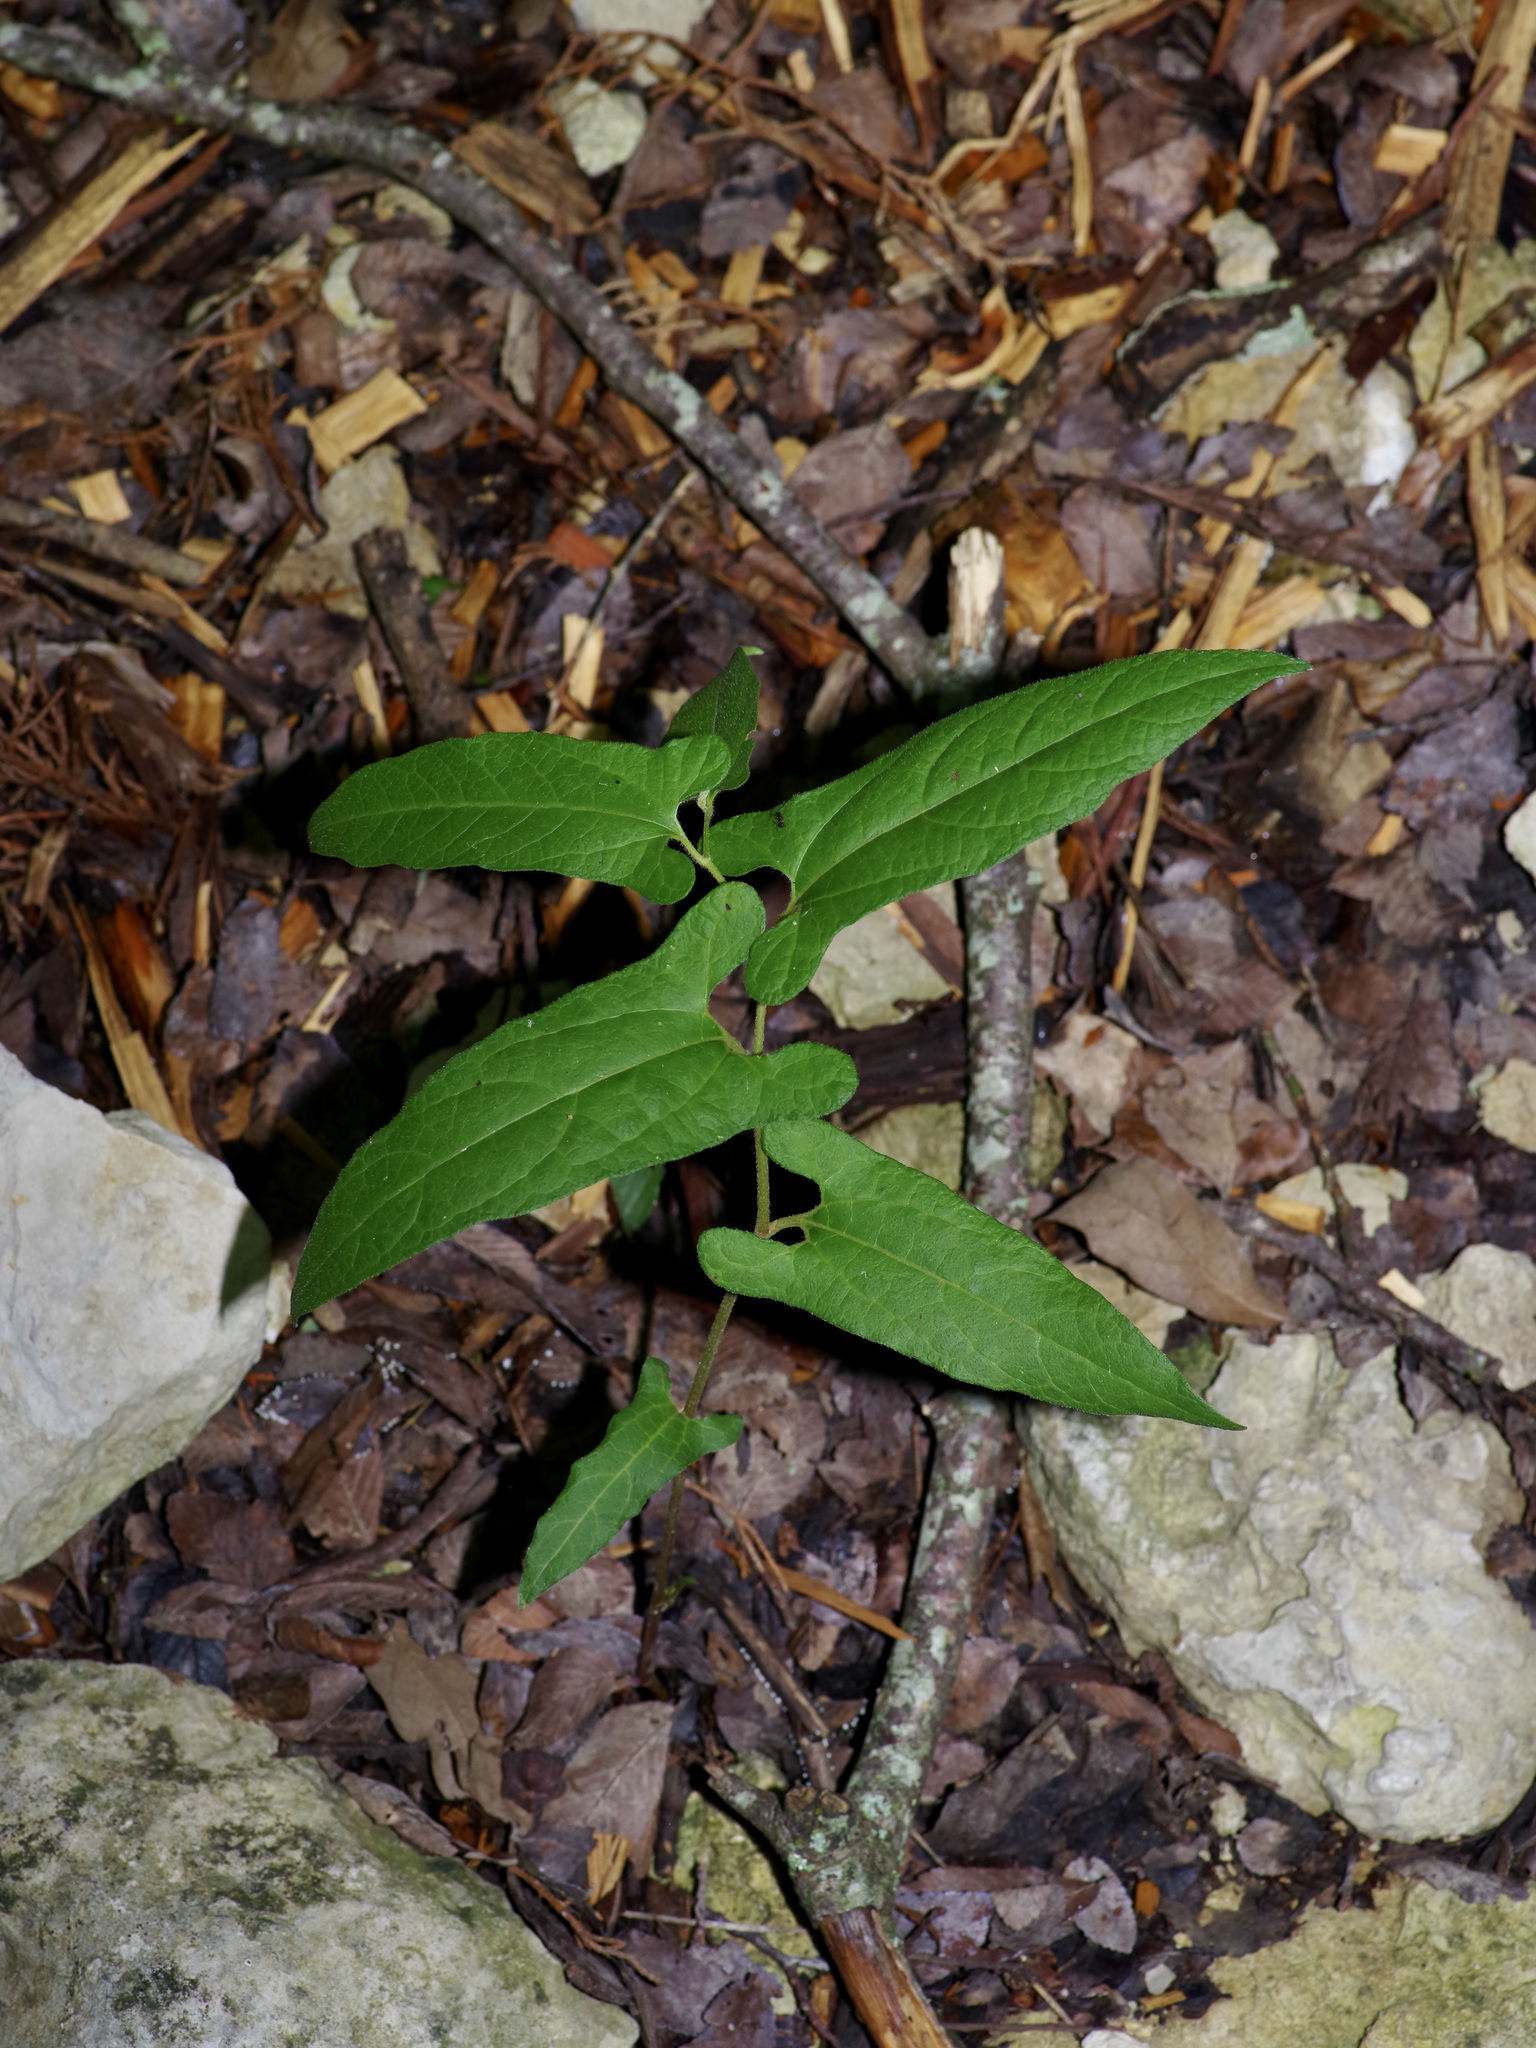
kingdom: Plantae
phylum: Tracheophyta
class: Magnoliopsida
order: Piperales
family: Aristolochiaceae
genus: Endodeca
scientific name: Endodeca serpentaria
